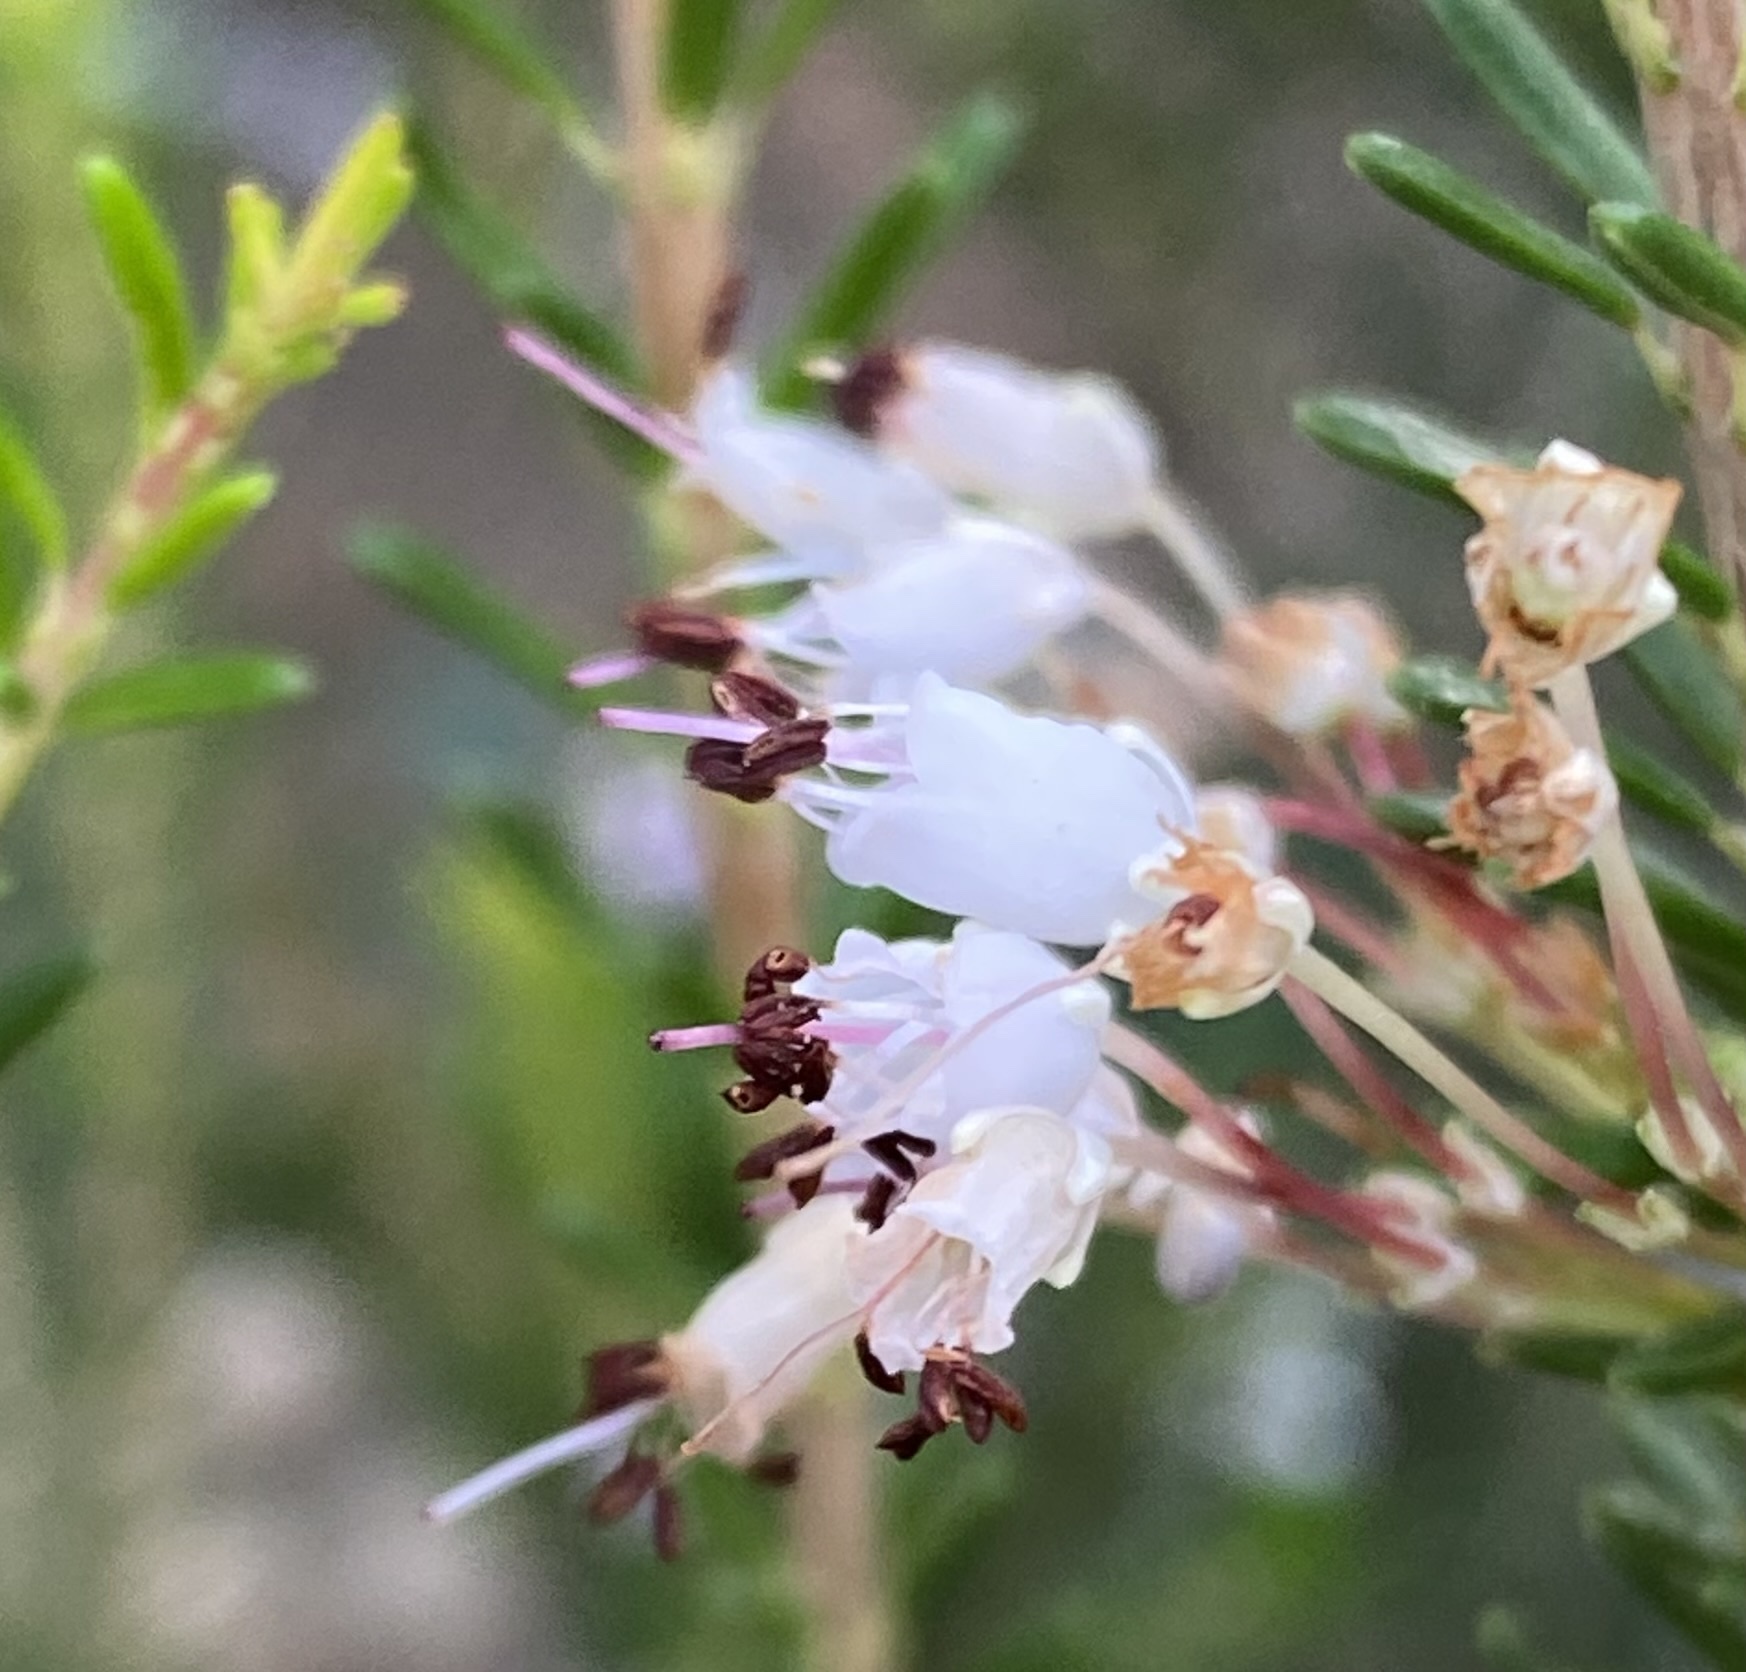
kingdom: Plantae
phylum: Tracheophyta
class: Magnoliopsida
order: Ericales
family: Ericaceae
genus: Erica
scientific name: Erica multiflora
